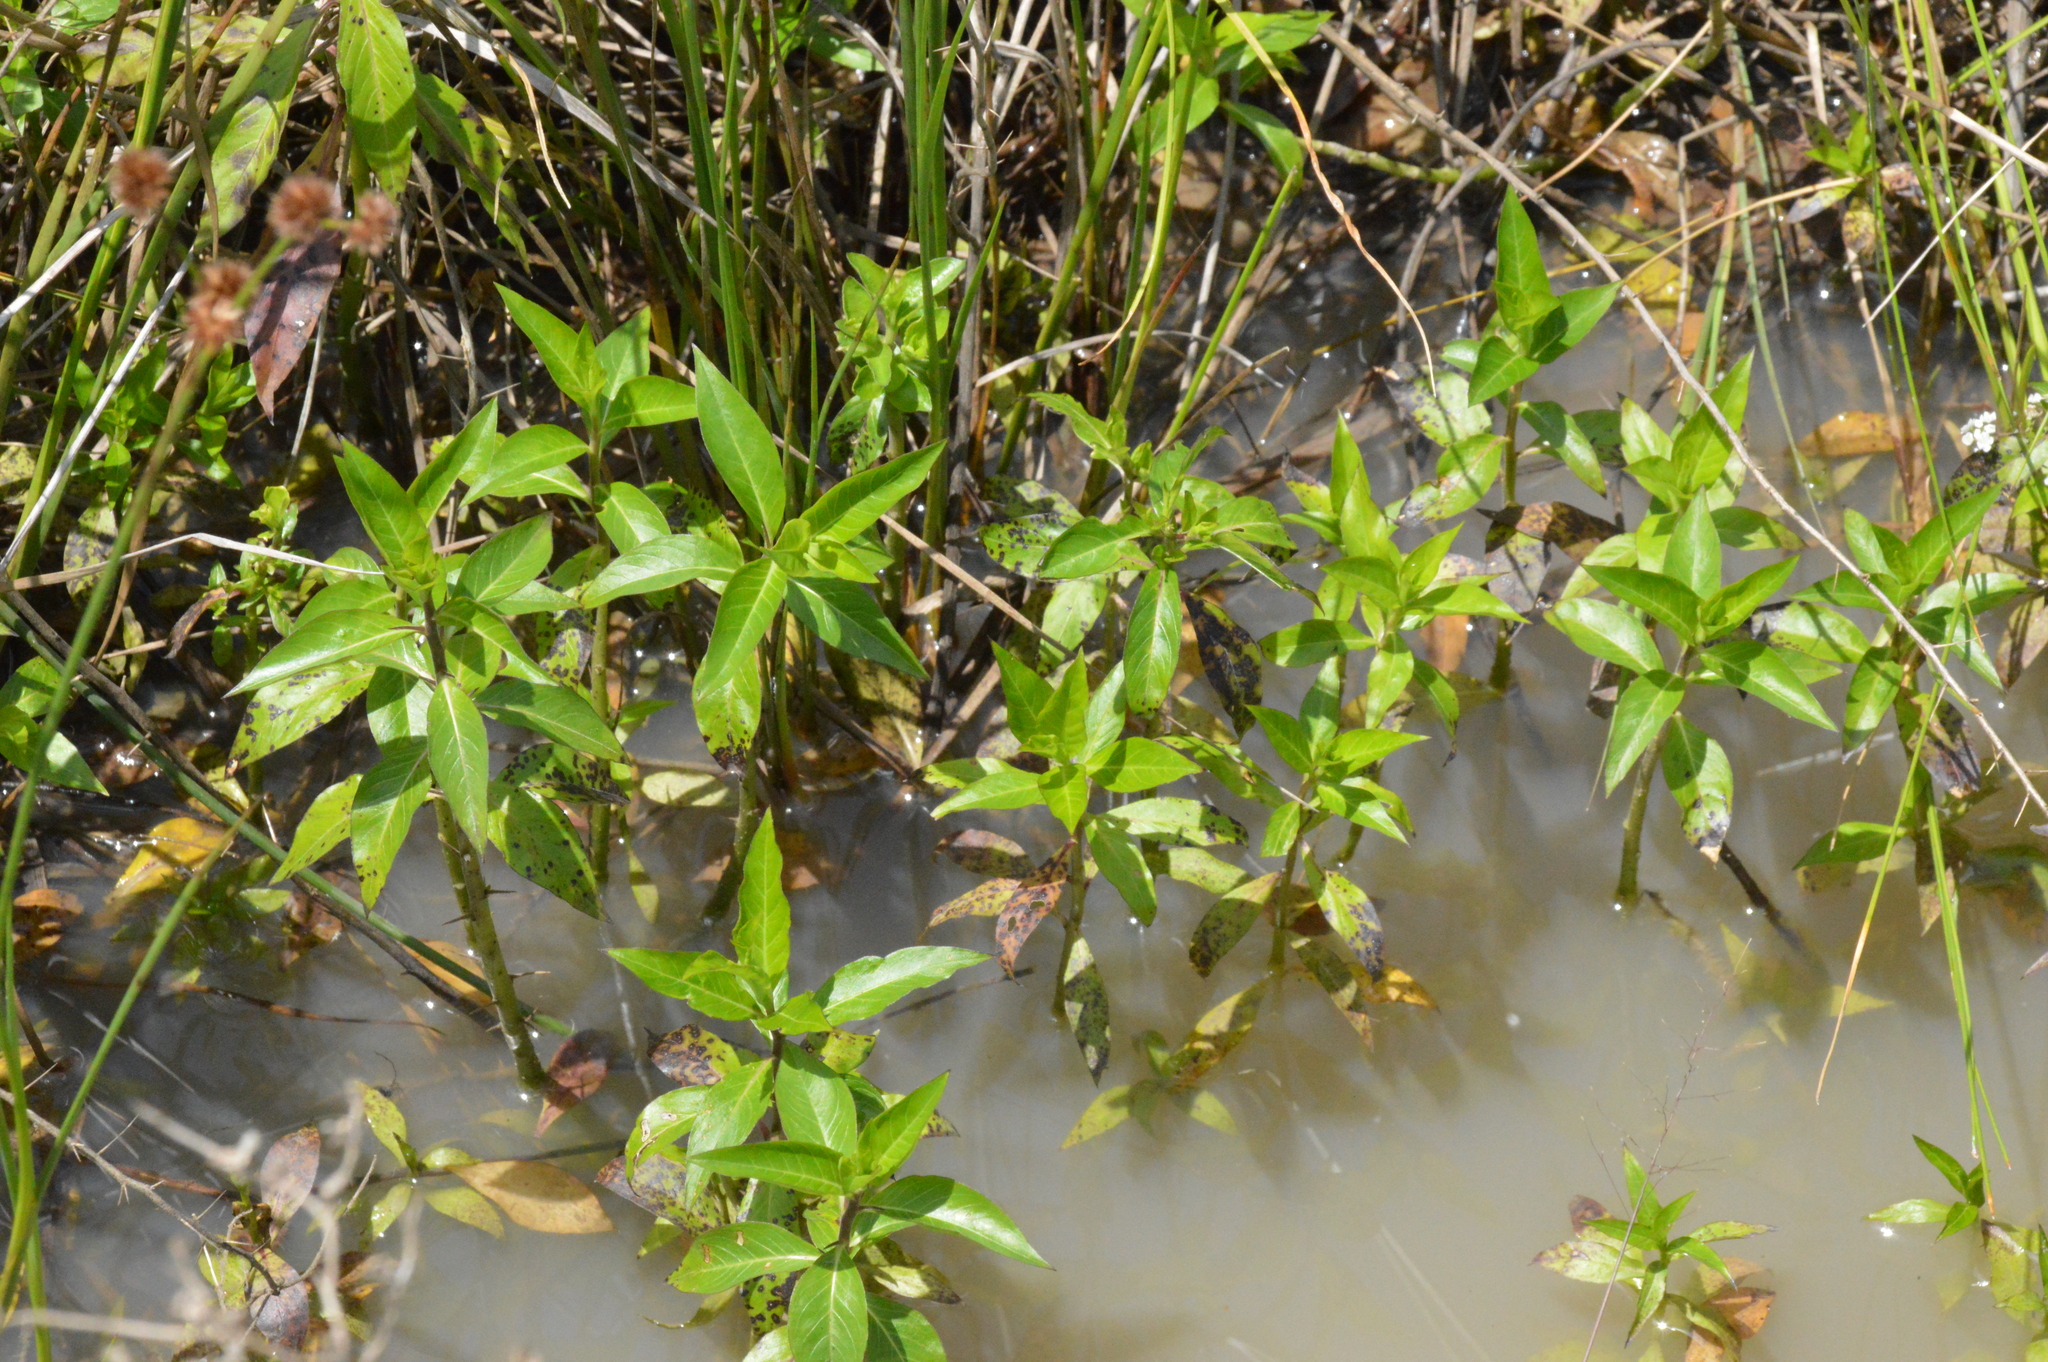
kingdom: Plantae
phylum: Tracheophyta
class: Magnoliopsida
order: Solanales
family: Hydroleaceae
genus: Hydrolea
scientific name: Hydrolea ovata
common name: Ovate false fiddleleaf
